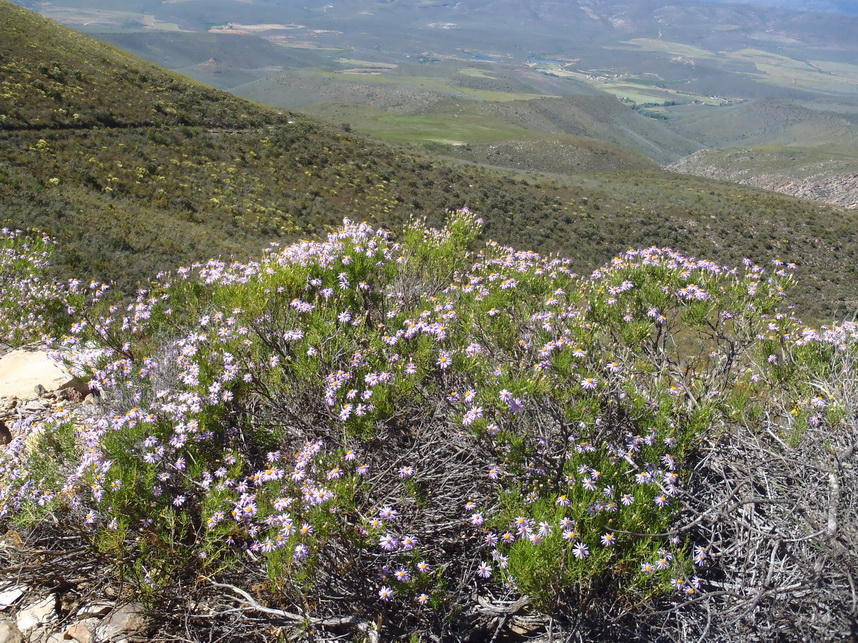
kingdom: Plantae
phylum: Tracheophyta
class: Magnoliopsida
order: Asterales
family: Asteraceae
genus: Felicia
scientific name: Felicia filifolia
